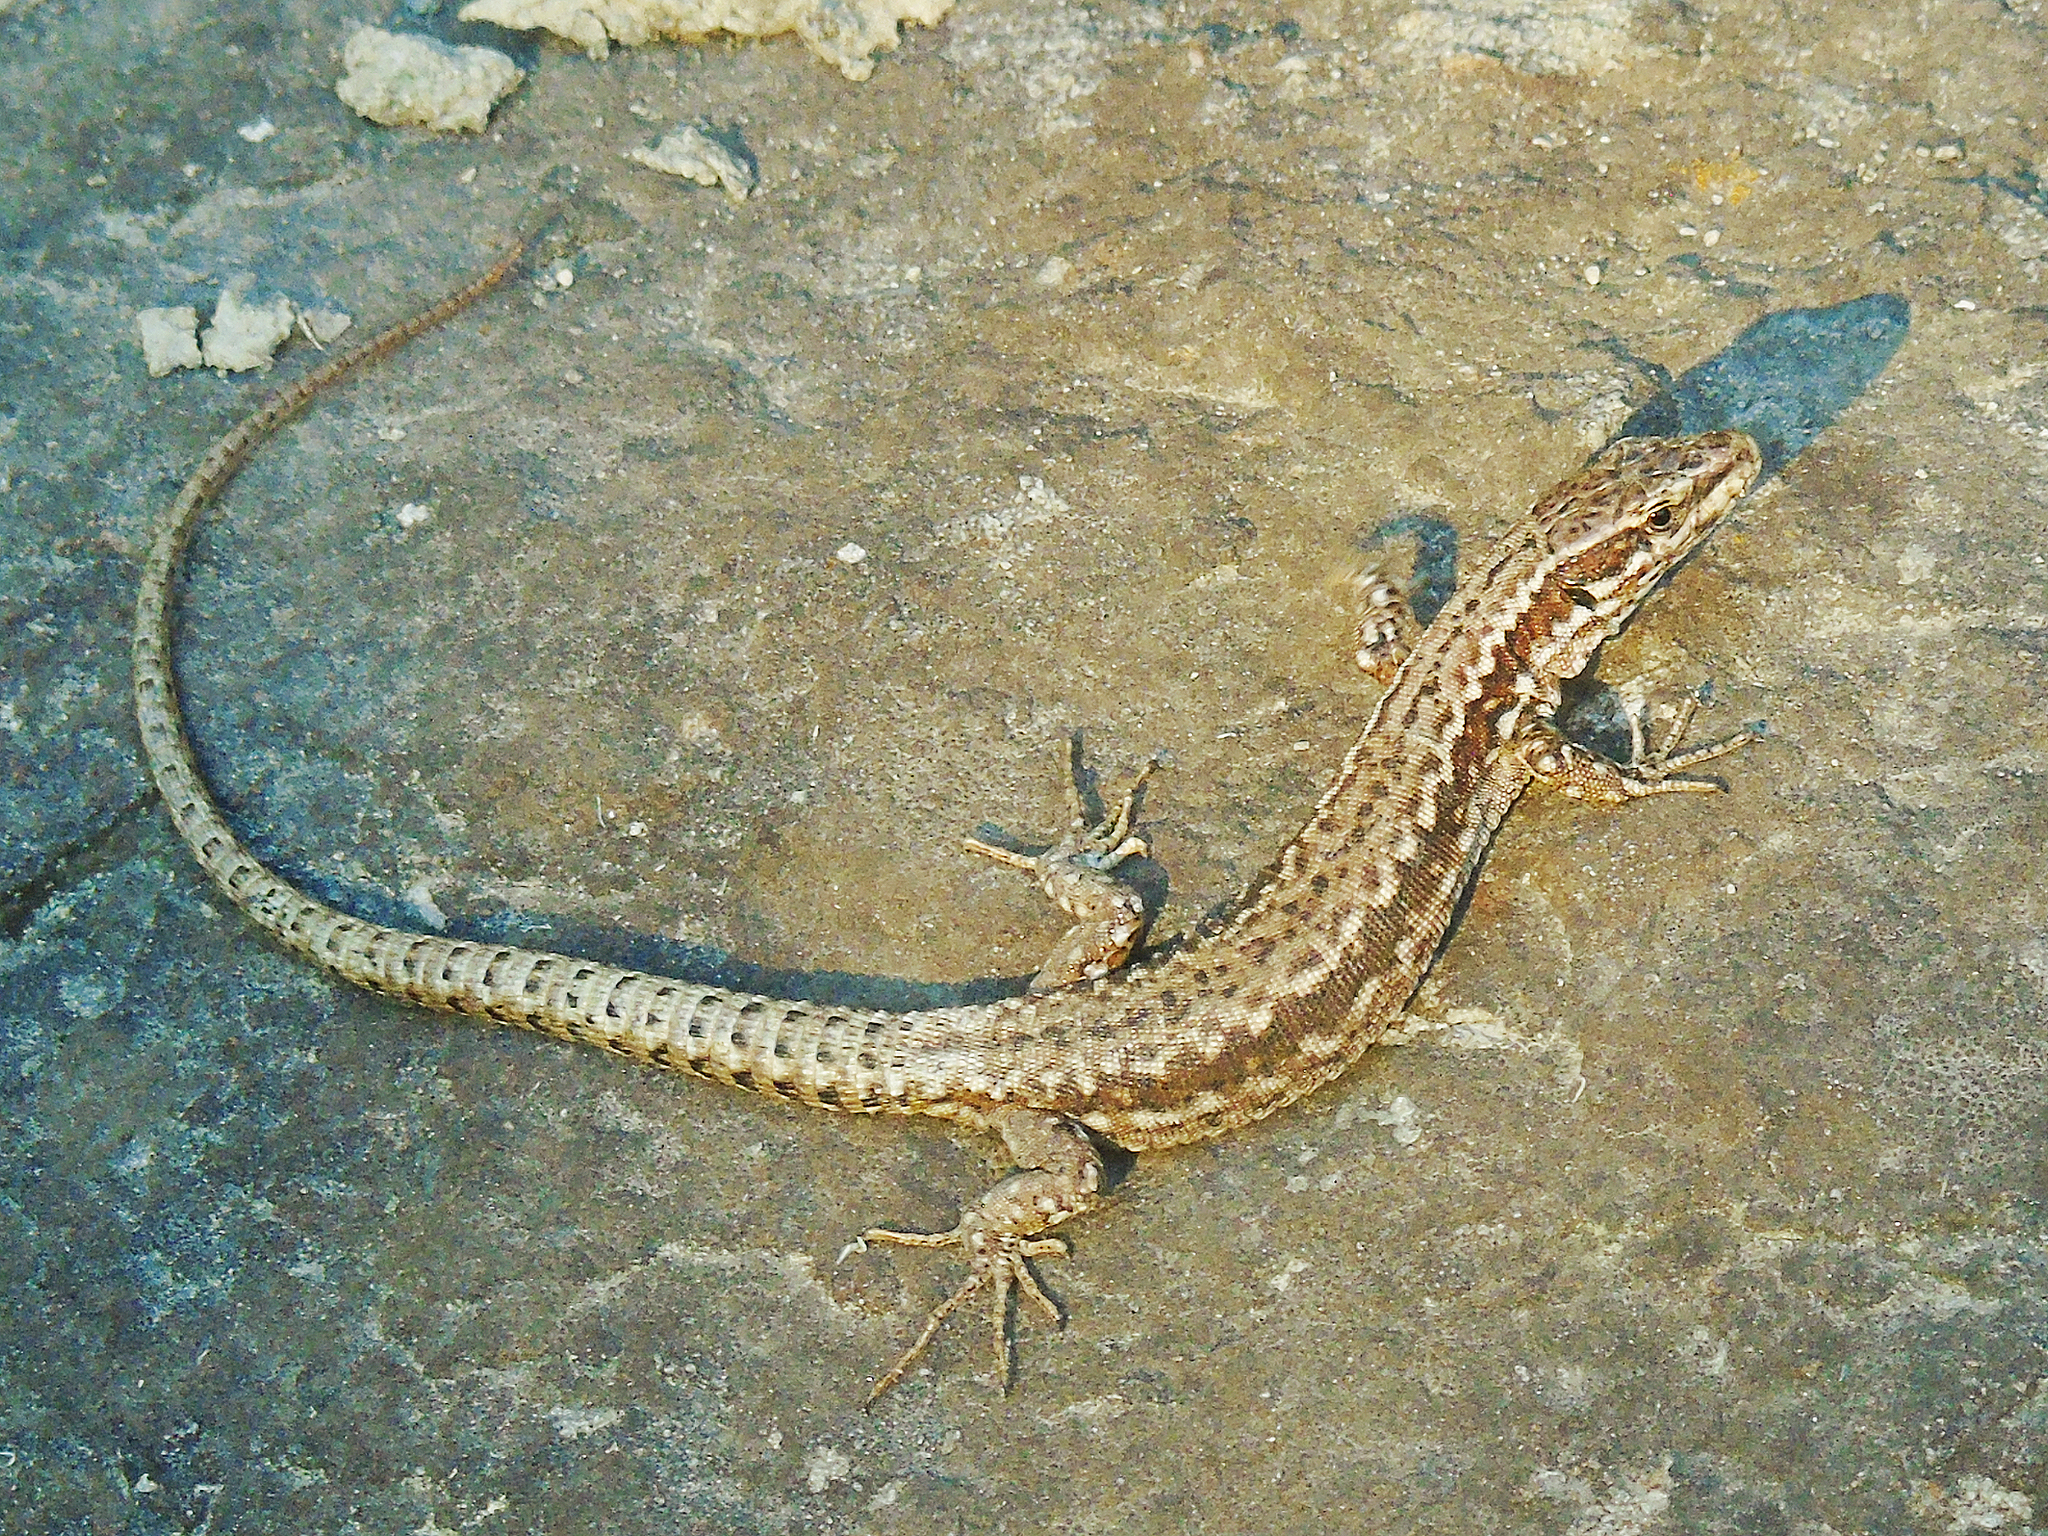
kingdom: Animalia
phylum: Chordata
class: Squamata
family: Lacertidae
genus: Podarcis
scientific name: Podarcis muralis
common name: Common wall lizard
